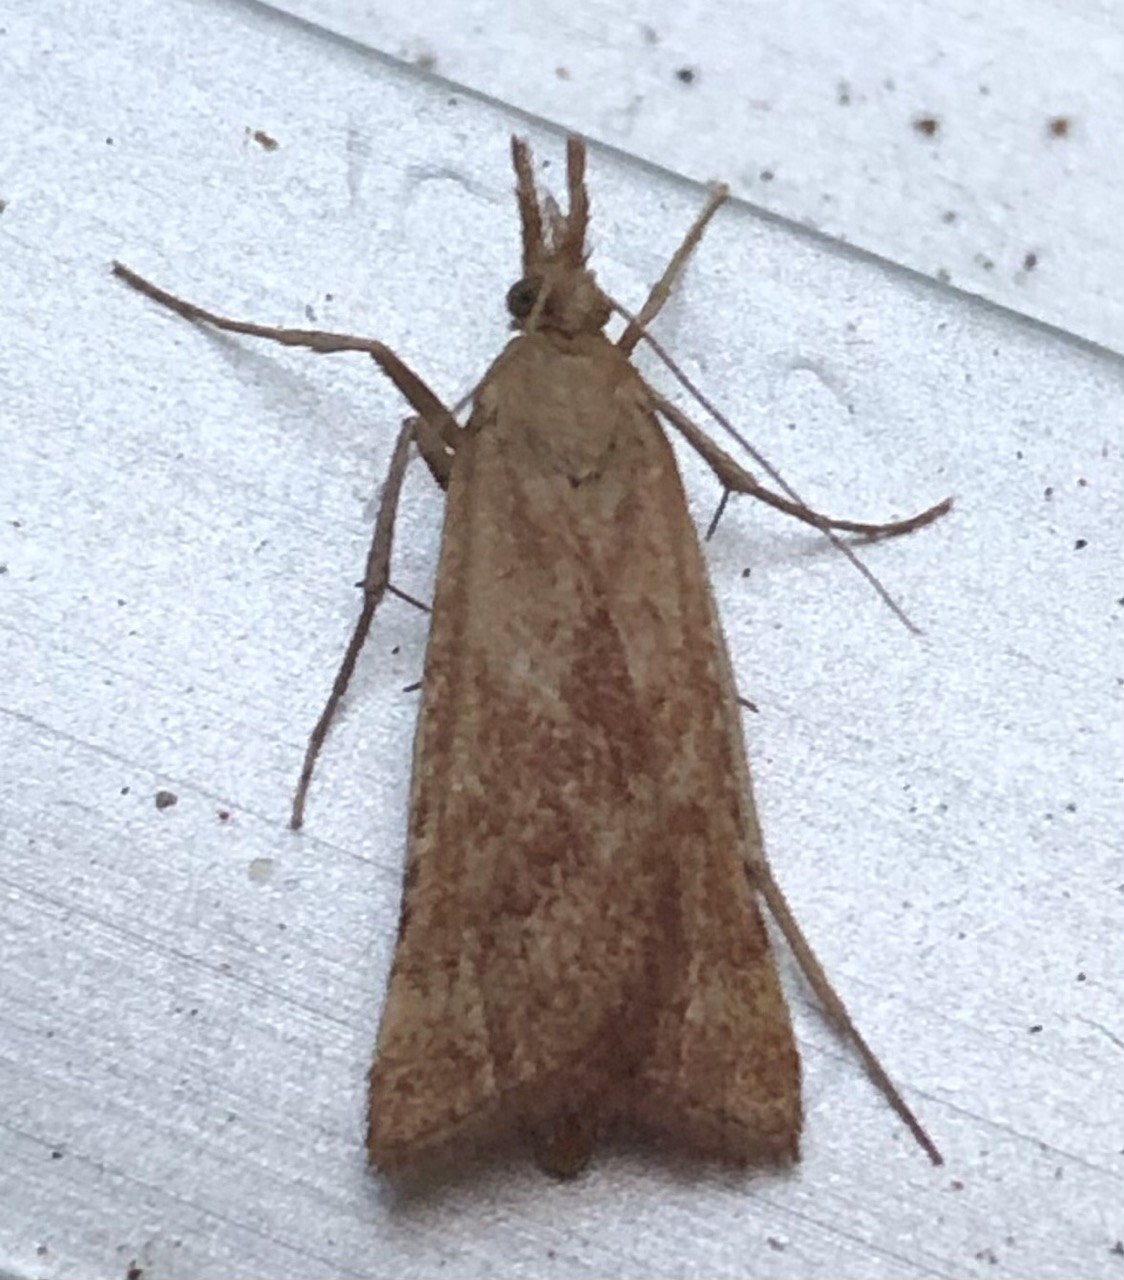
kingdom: Animalia
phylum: Arthropoda
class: Insecta
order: Lepidoptera
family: Pyralidae
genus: Synaphe
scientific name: Synaphe punctalis
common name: Long-legged tabby
